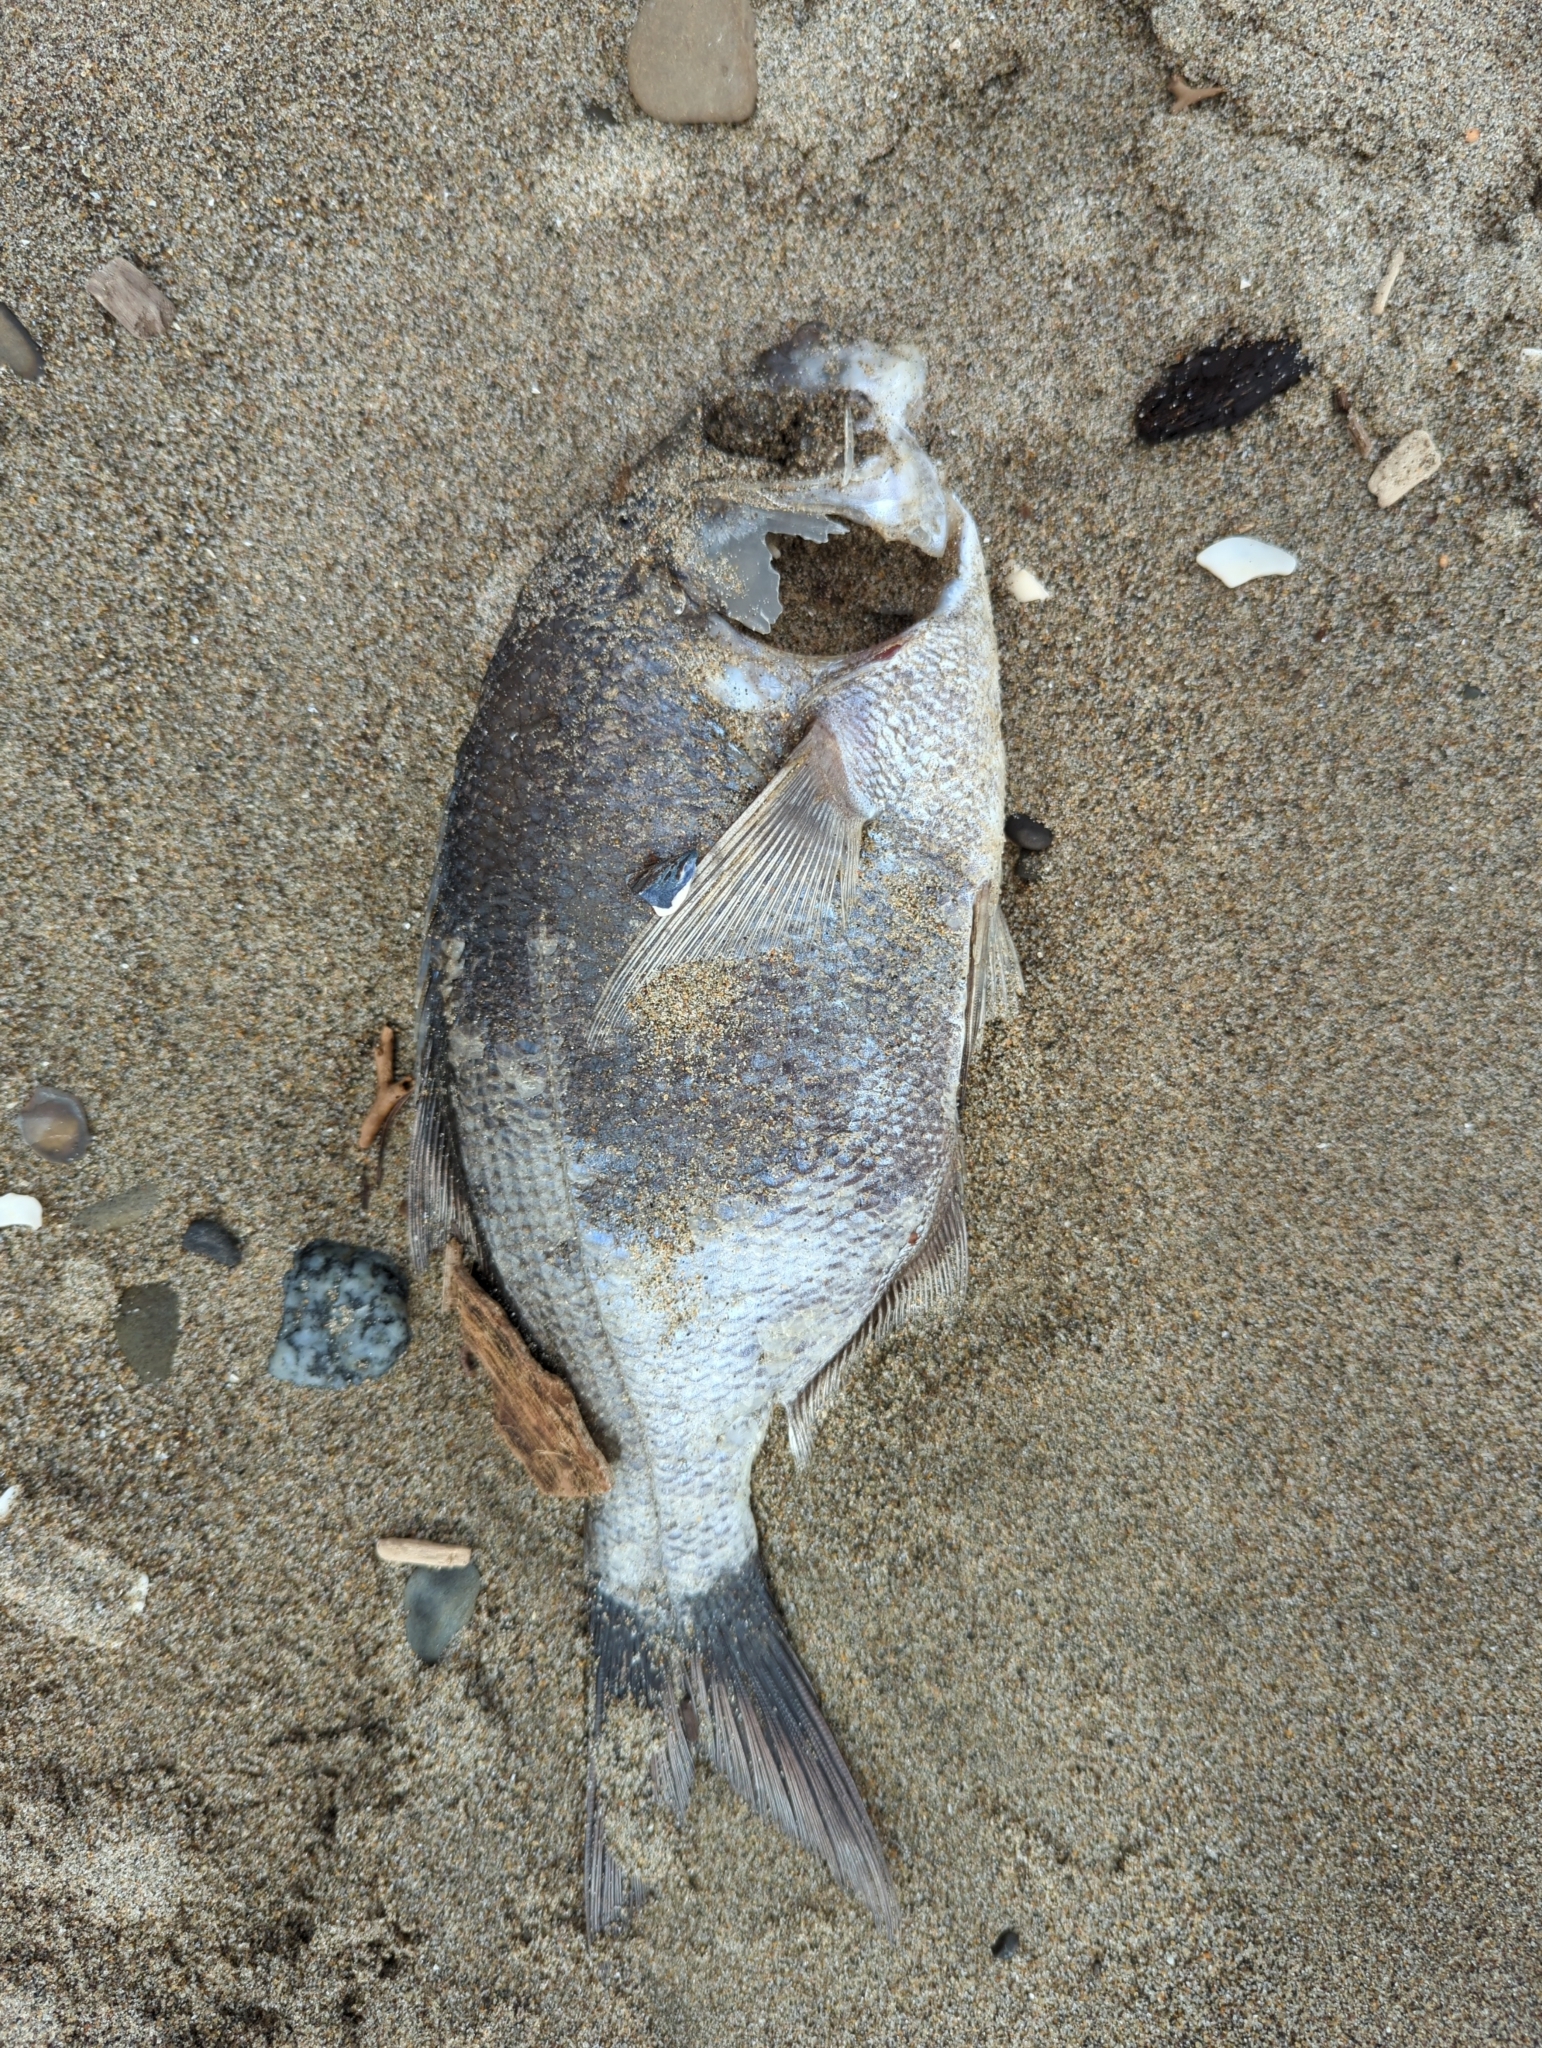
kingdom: Animalia
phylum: Chordata
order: Perciformes
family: Embiotocidae
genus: Rhacochilus
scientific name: Rhacochilus vacca
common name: Pile perch
